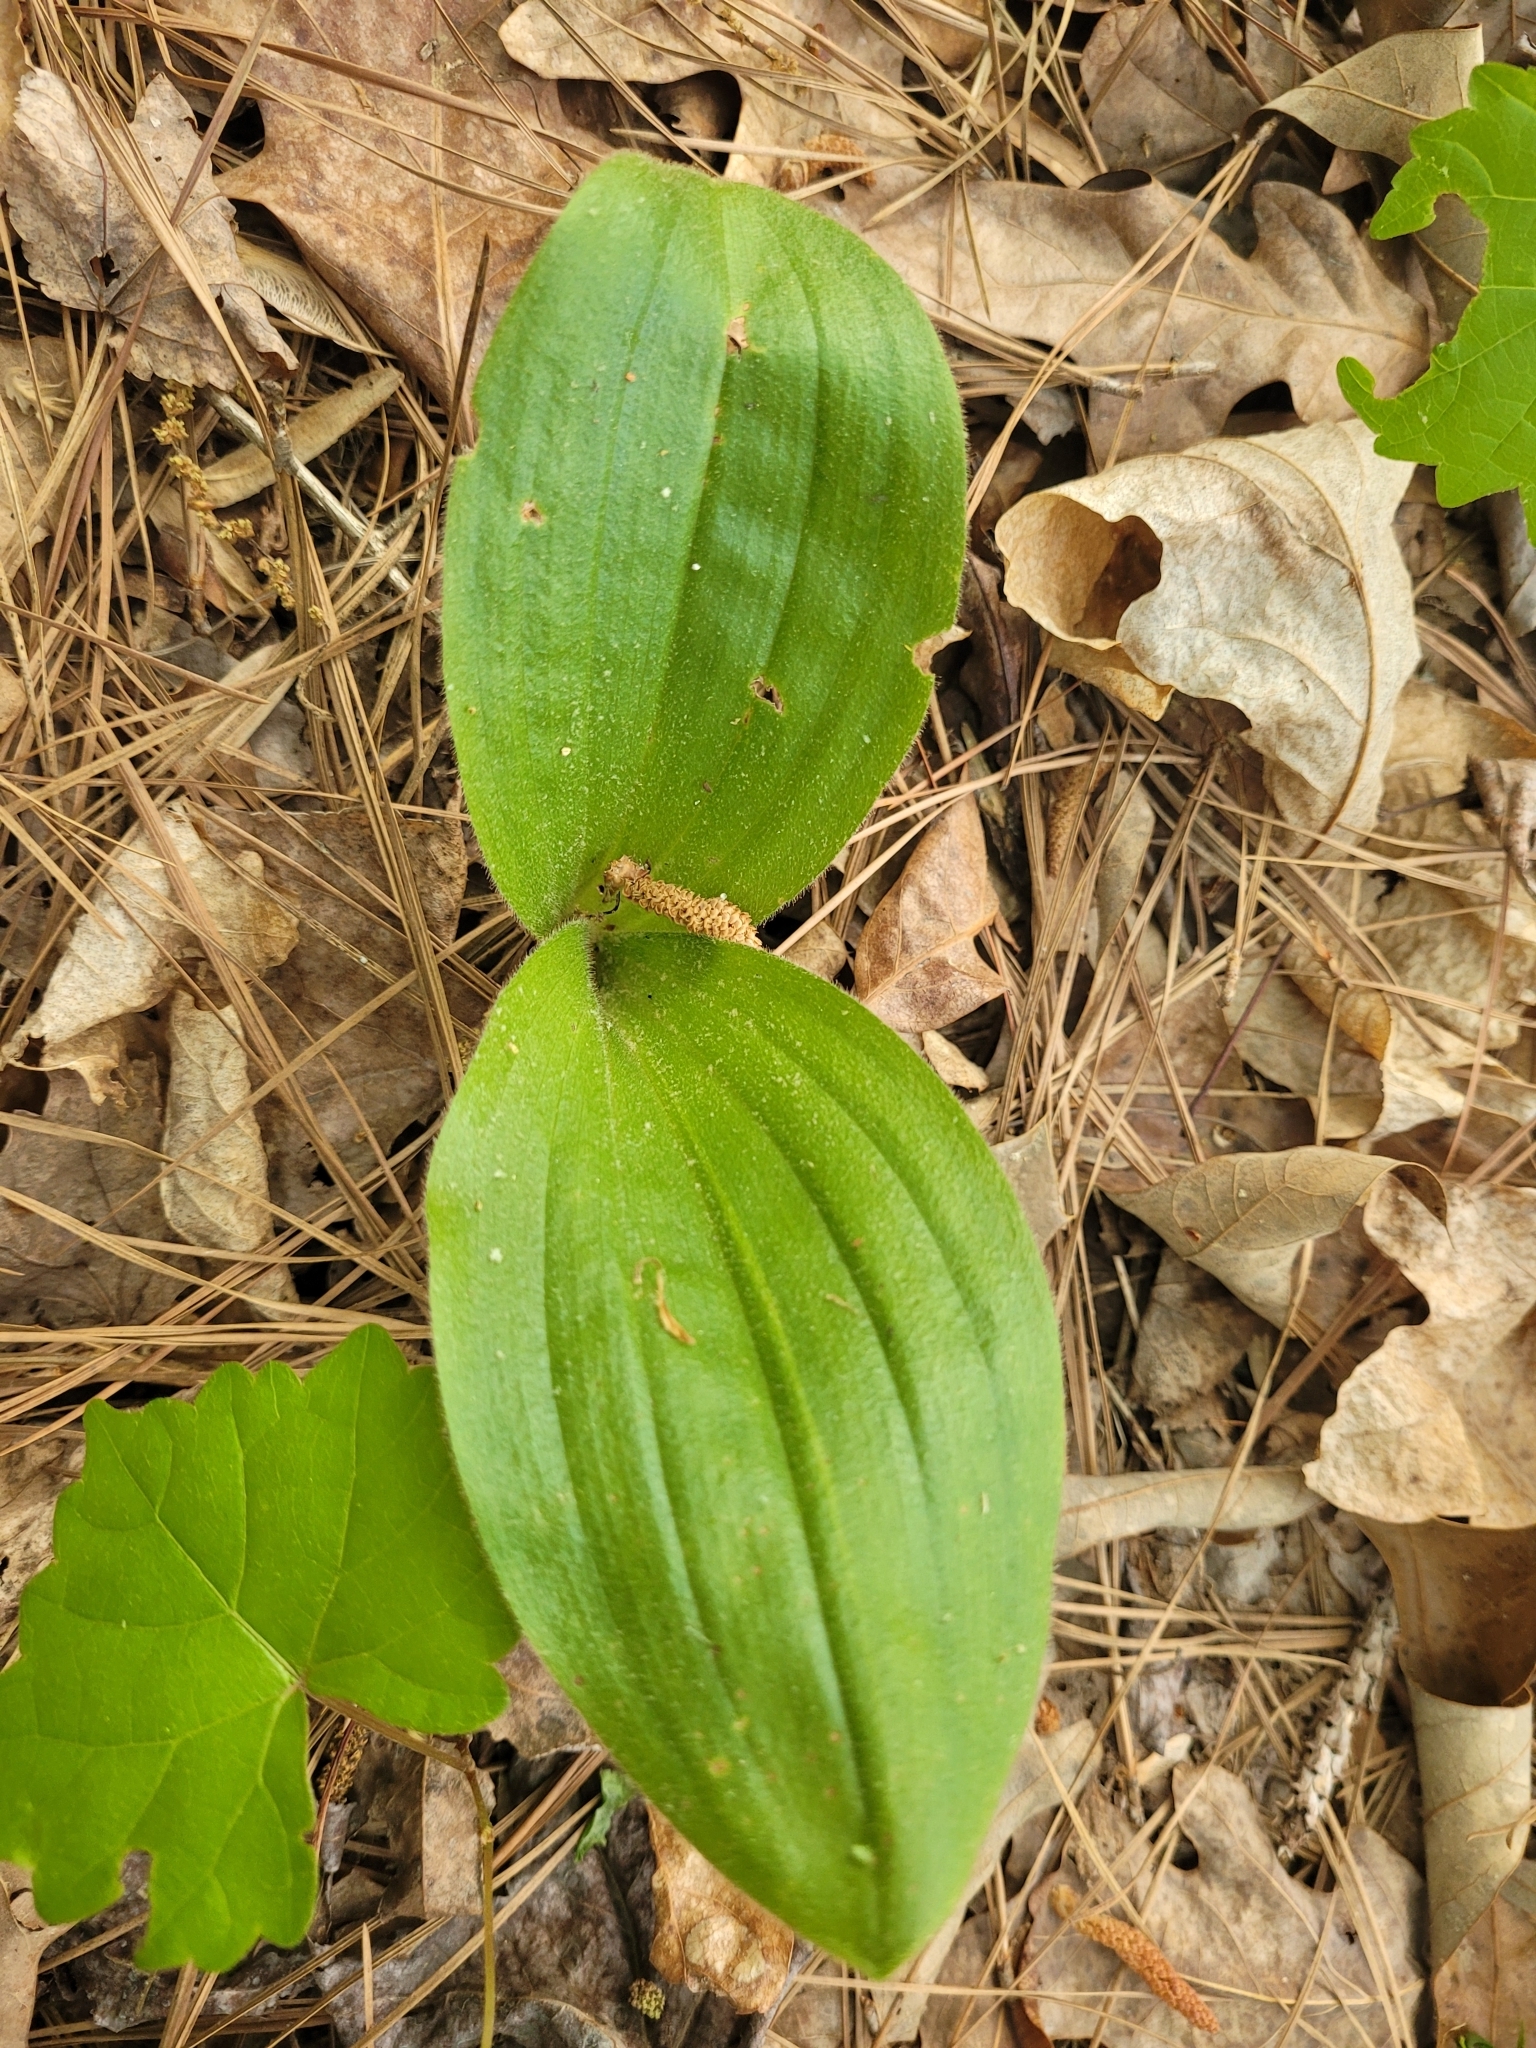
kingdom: Plantae
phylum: Tracheophyta
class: Liliopsida
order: Asparagales
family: Orchidaceae
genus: Cypripedium
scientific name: Cypripedium acaule
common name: Pink lady's-slipper
